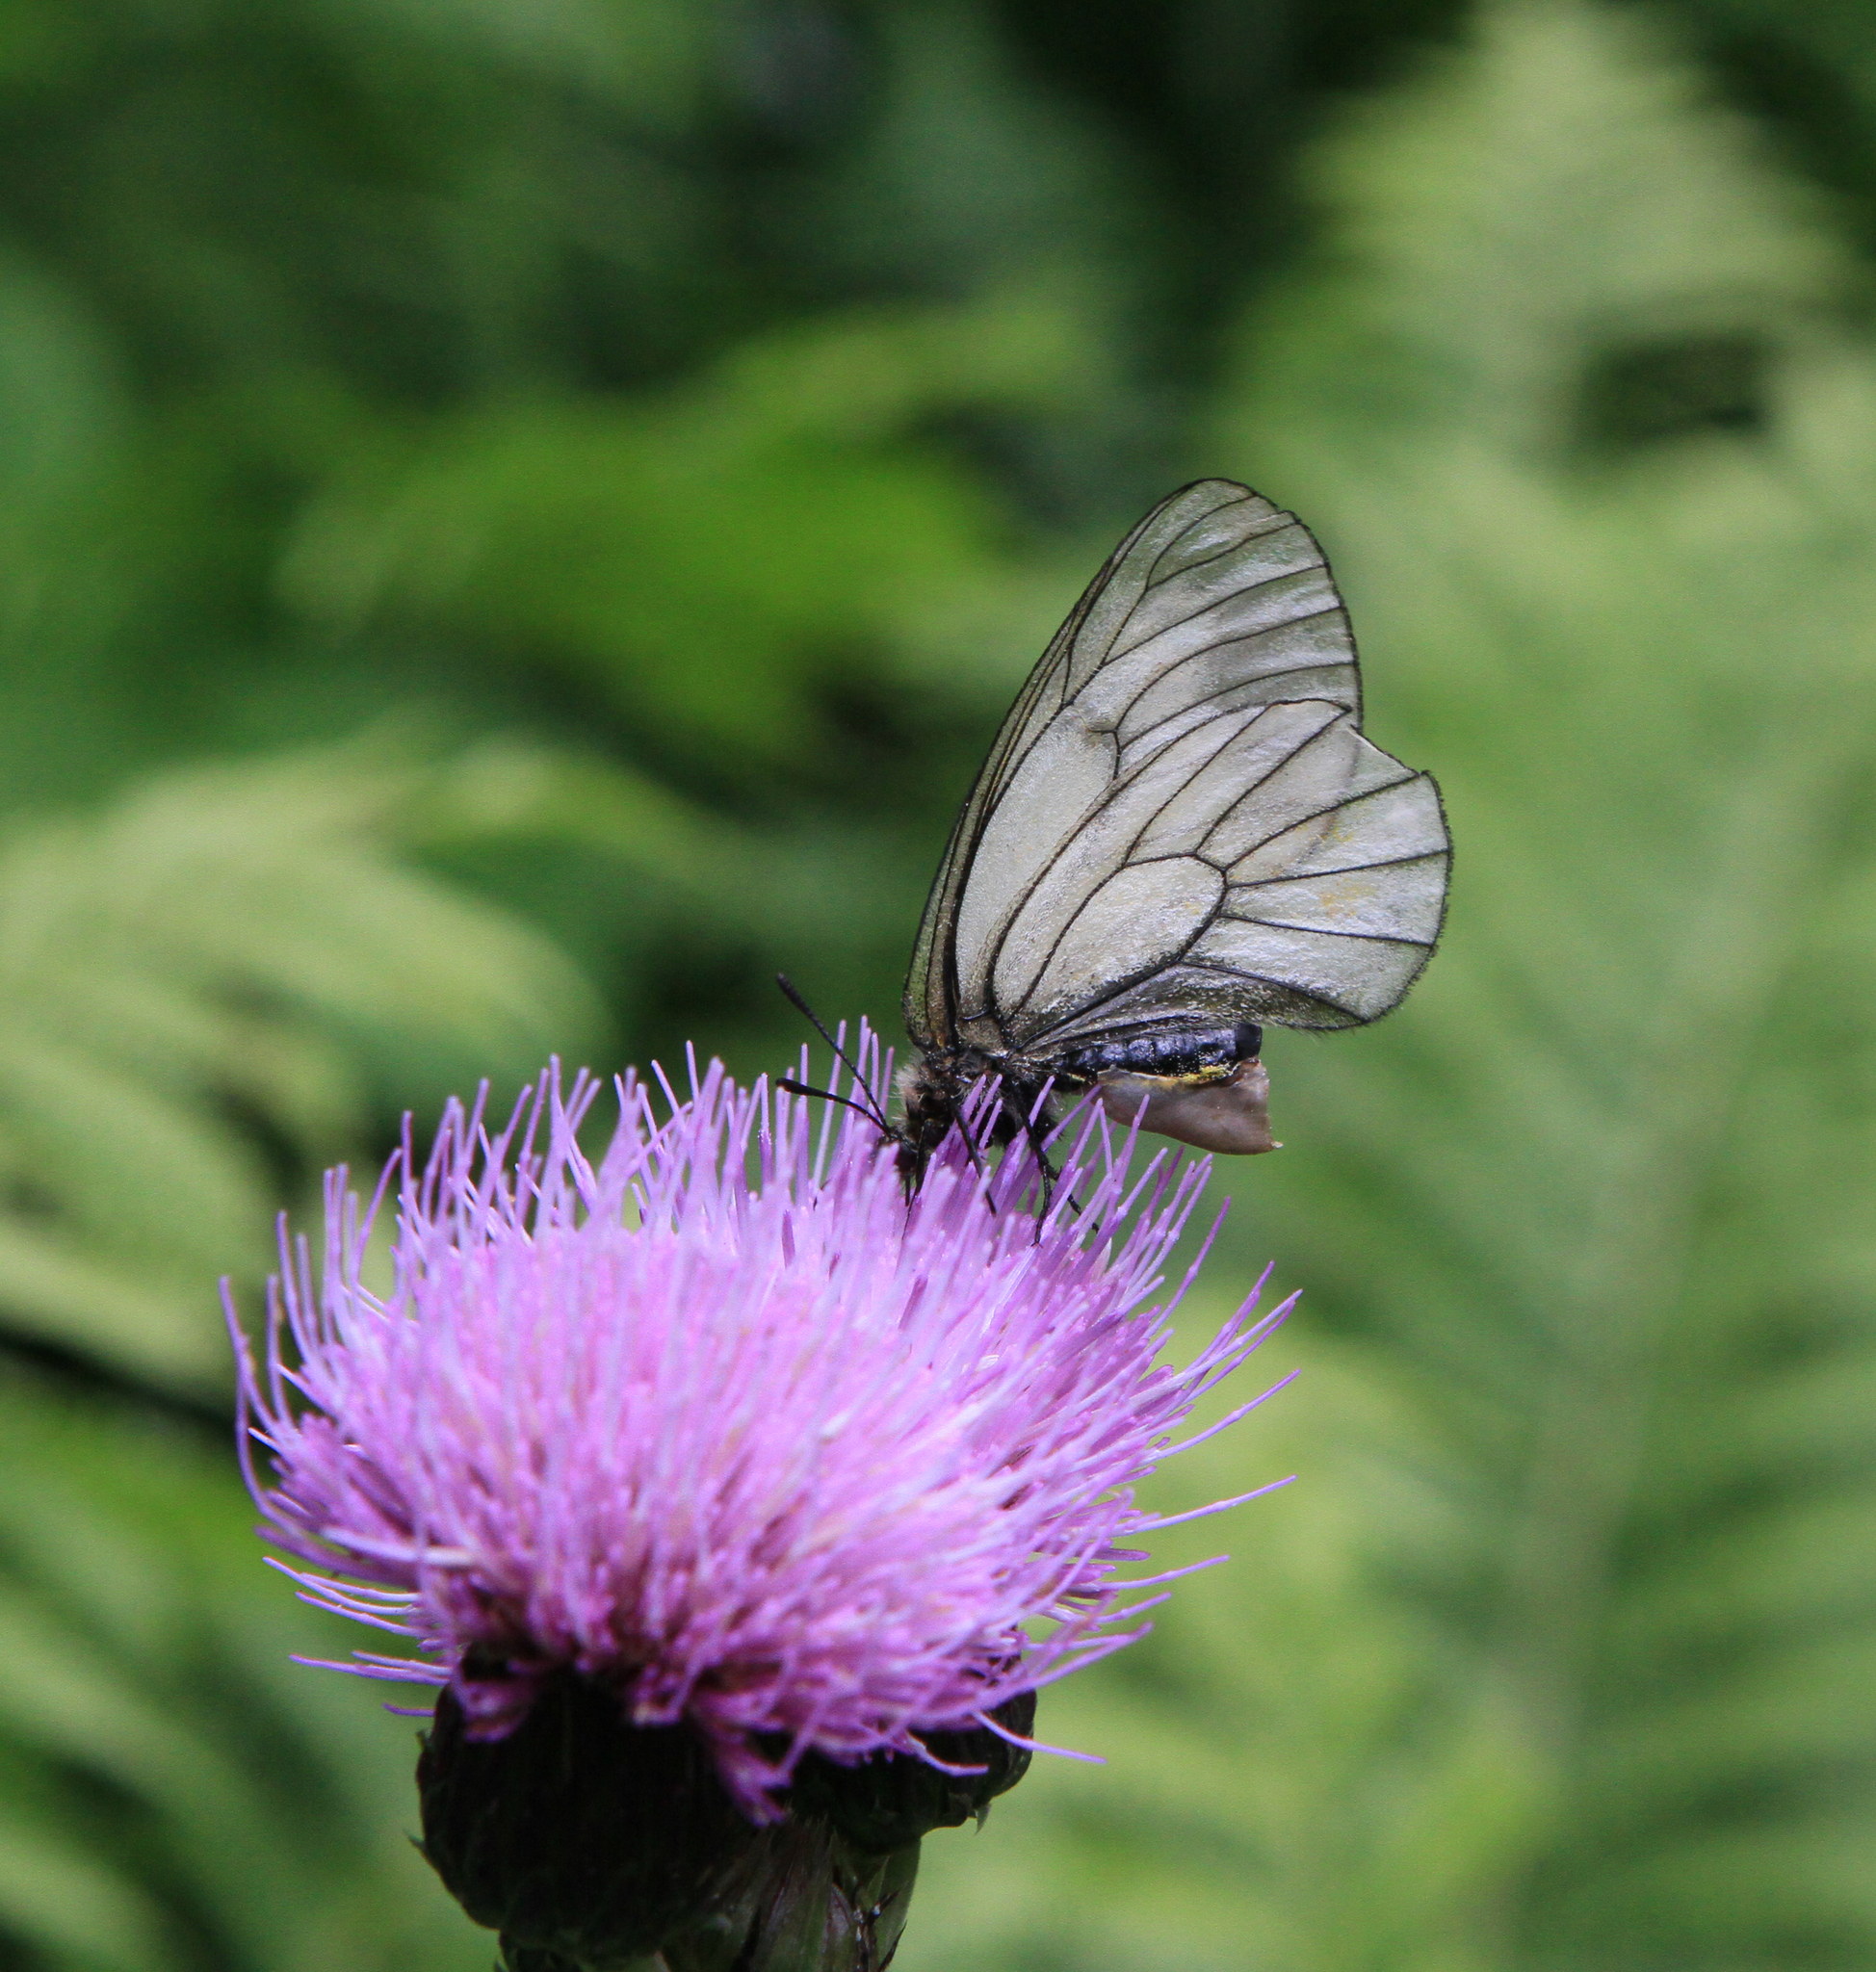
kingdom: Plantae
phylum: Tracheophyta
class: Magnoliopsida
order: Asterales
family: Asteraceae
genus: Cirsium
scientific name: Cirsium helenioides
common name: Melancholy thistle
